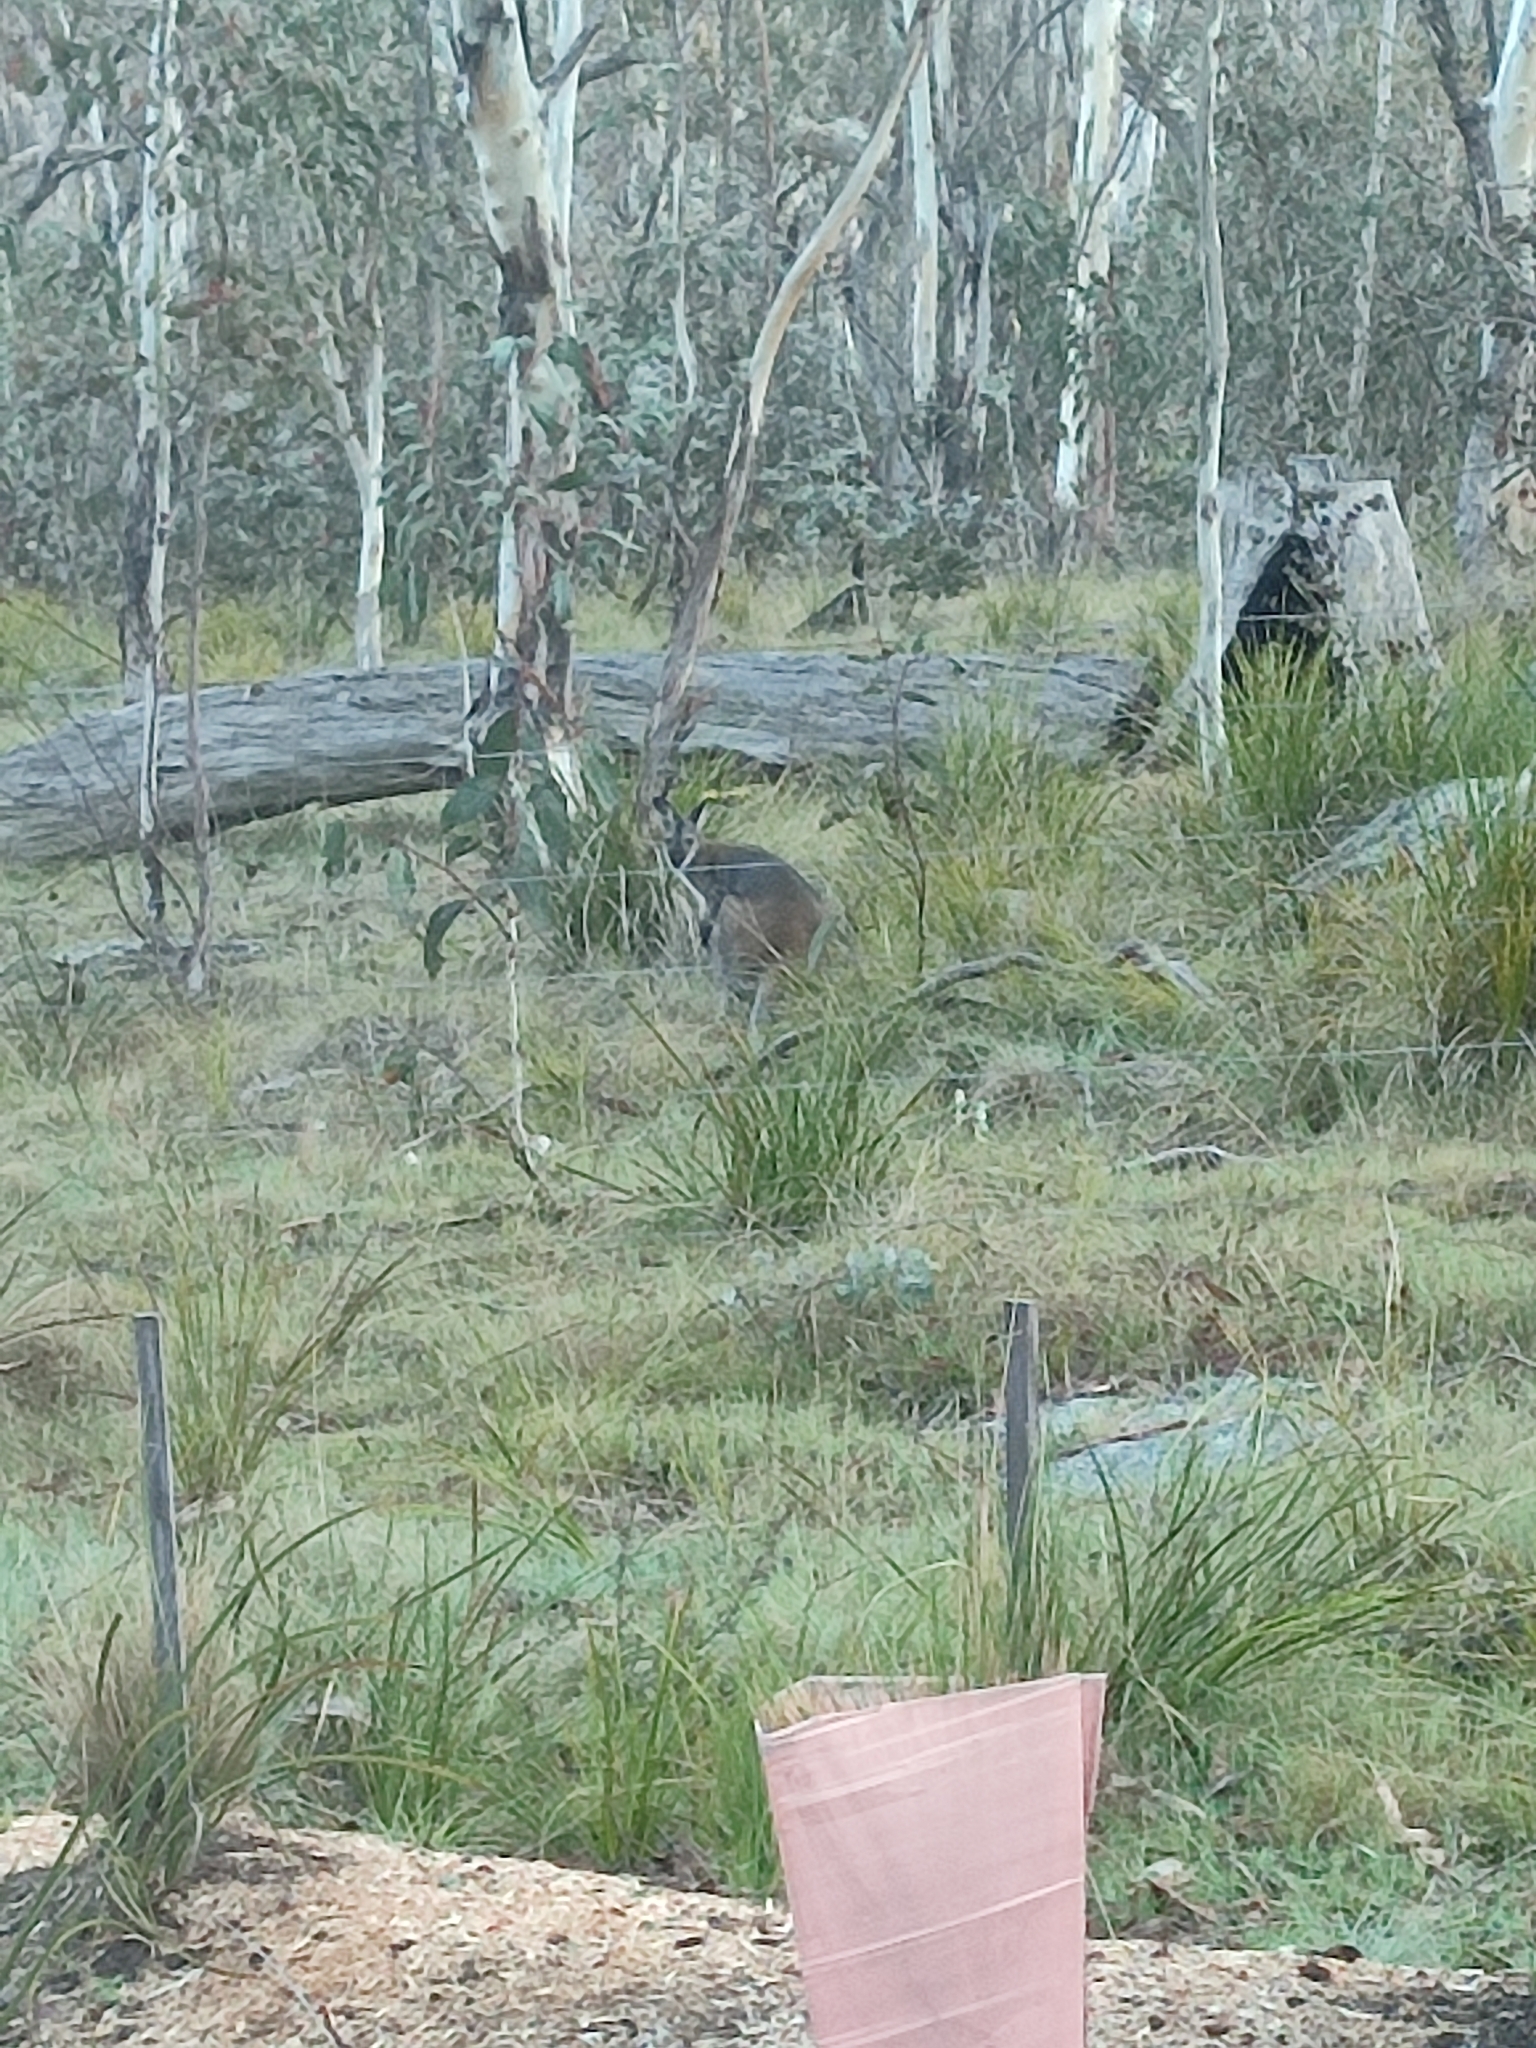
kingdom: Animalia
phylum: Chordata
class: Mammalia
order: Diprotodontia
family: Macropodidae
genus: Notamacropus
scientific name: Notamacropus rufogriseus
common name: Red-necked wallaby
